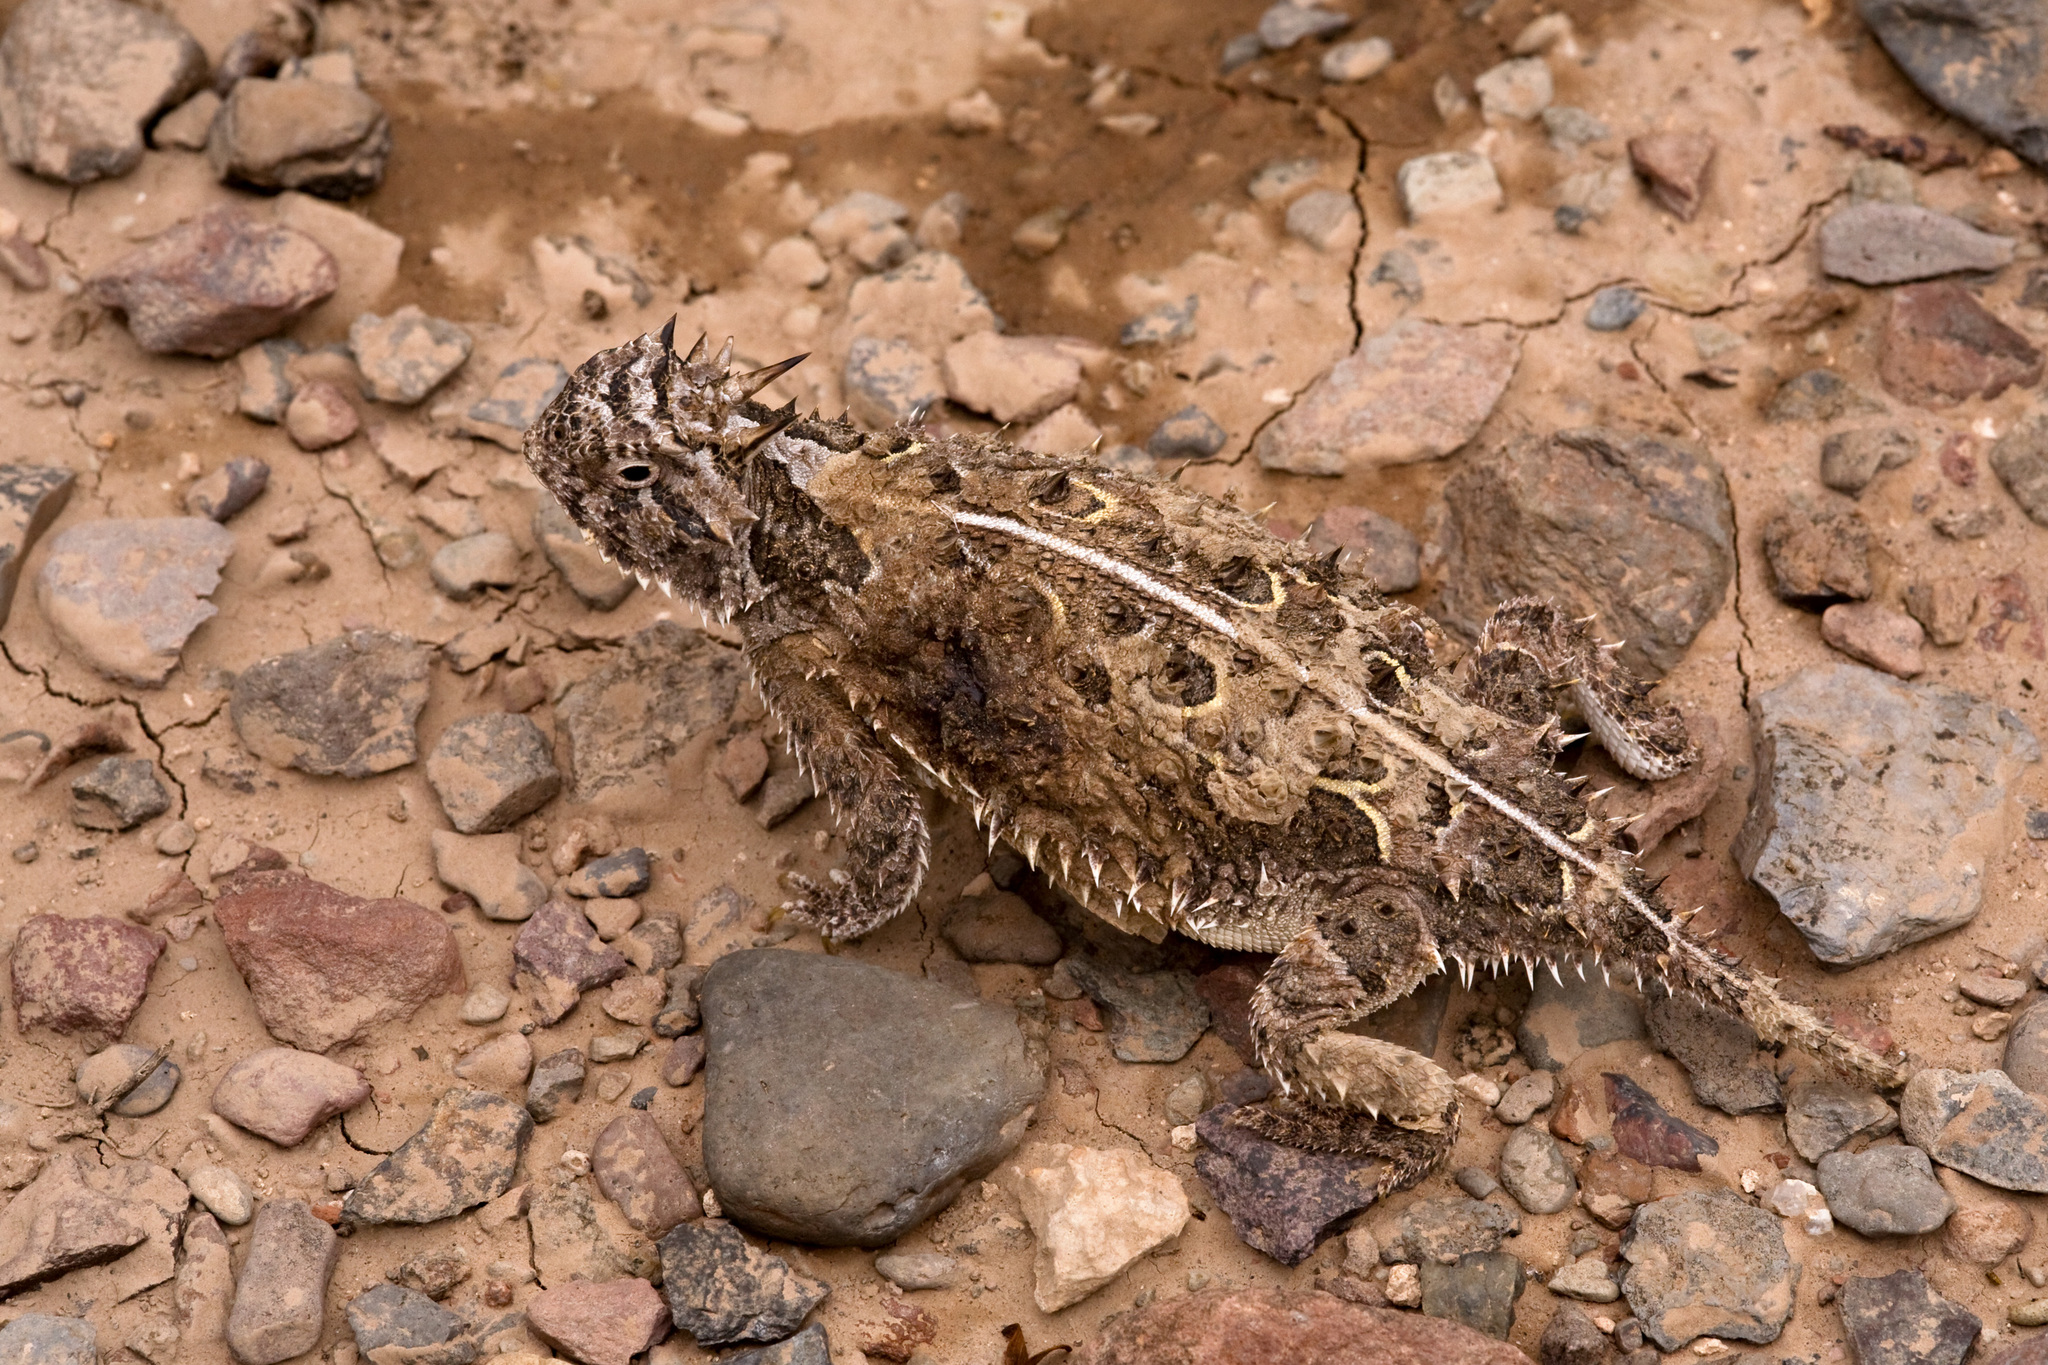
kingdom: Animalia
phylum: Chordata
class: Squamata
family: Phrynosomatidae
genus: Phrynosoma
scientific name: Phrynosoma cornutum
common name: Texas horned lizard
